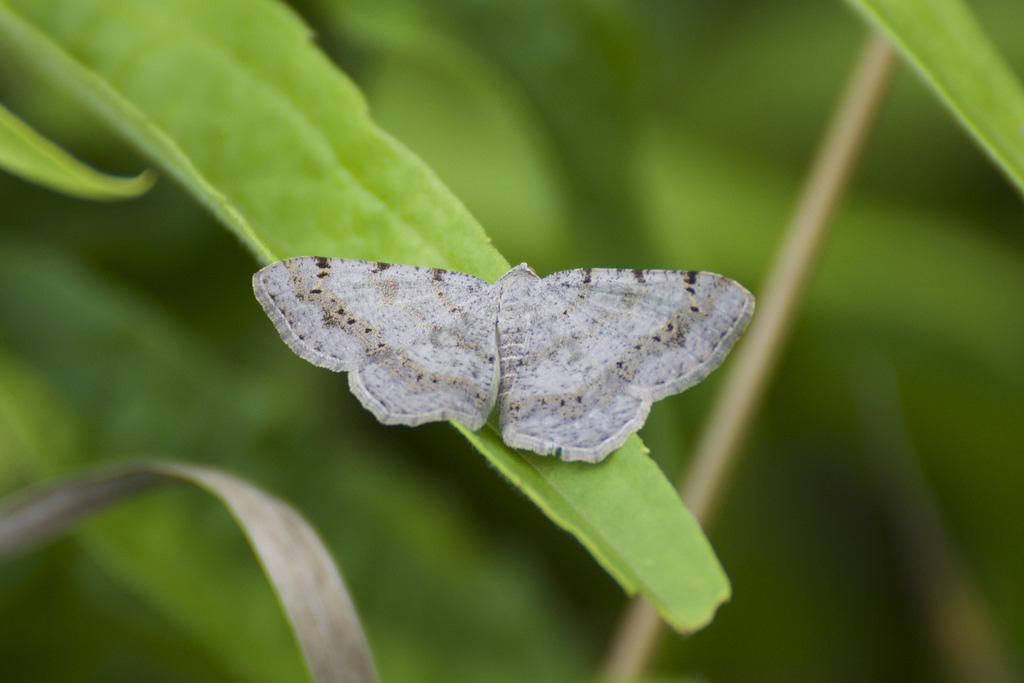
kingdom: Animalia
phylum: Arthropoda
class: Insecta
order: Lepidoptera
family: Geometridae
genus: Digrammia
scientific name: Digrammia ocellinata
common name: Faint-spotted angle
